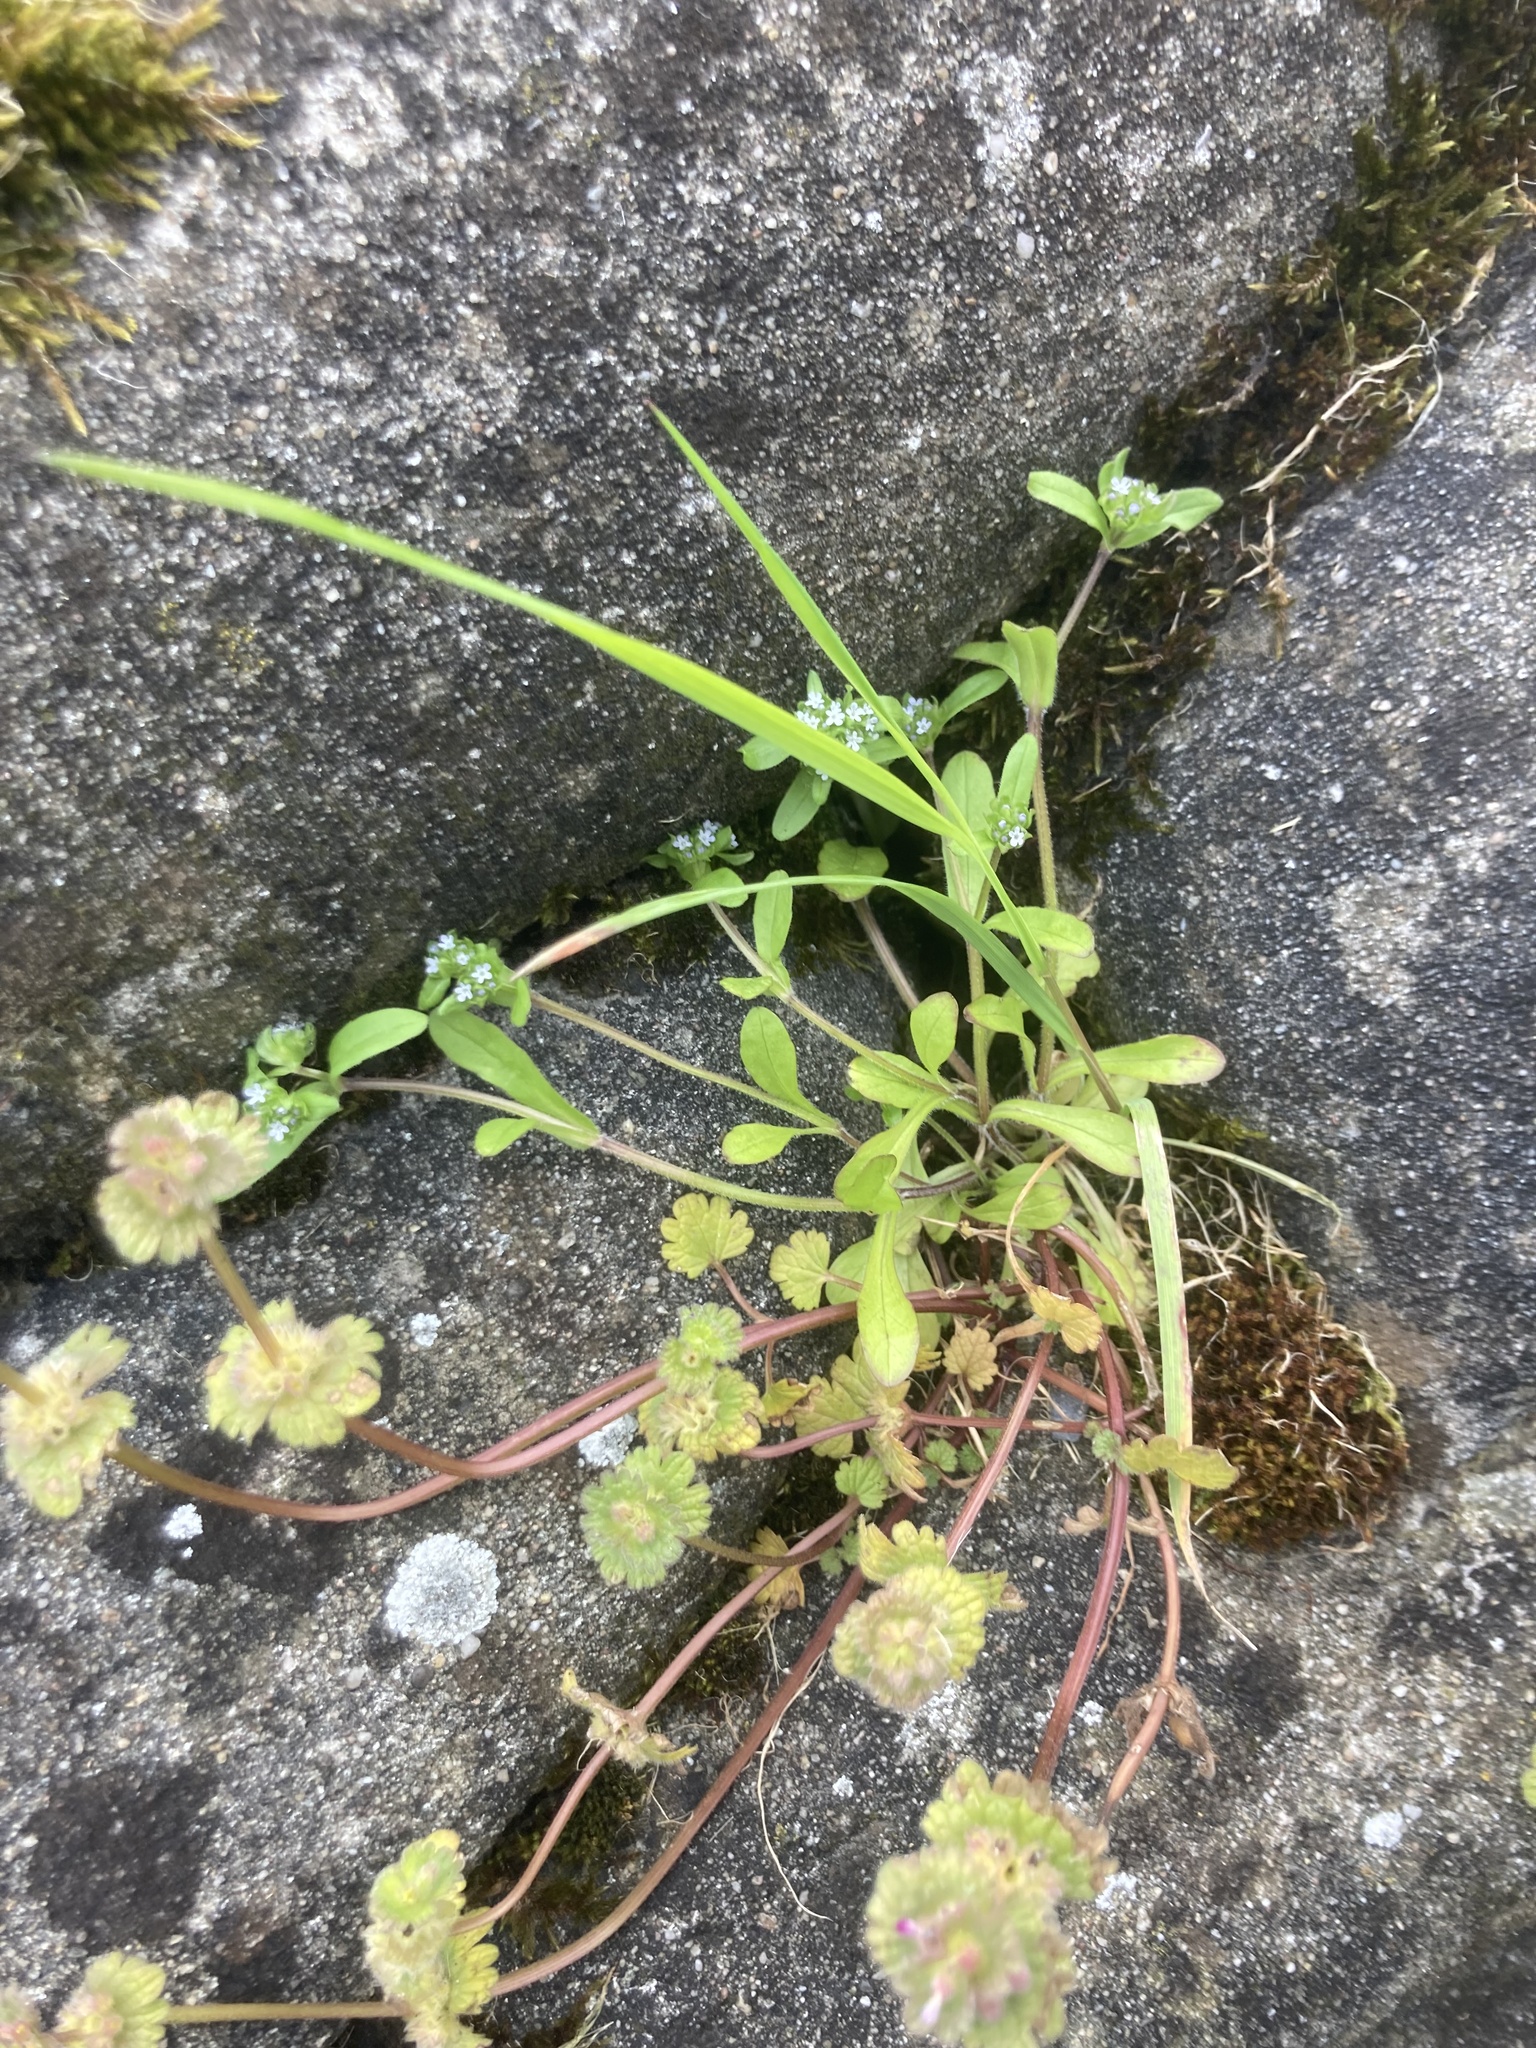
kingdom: Plantae
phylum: Tracheophyta
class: Magnoliopsida
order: Lamiales
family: Lamiaceae
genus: Lamium
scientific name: Lamium amplexicaule
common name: Henbit dead-nettle
